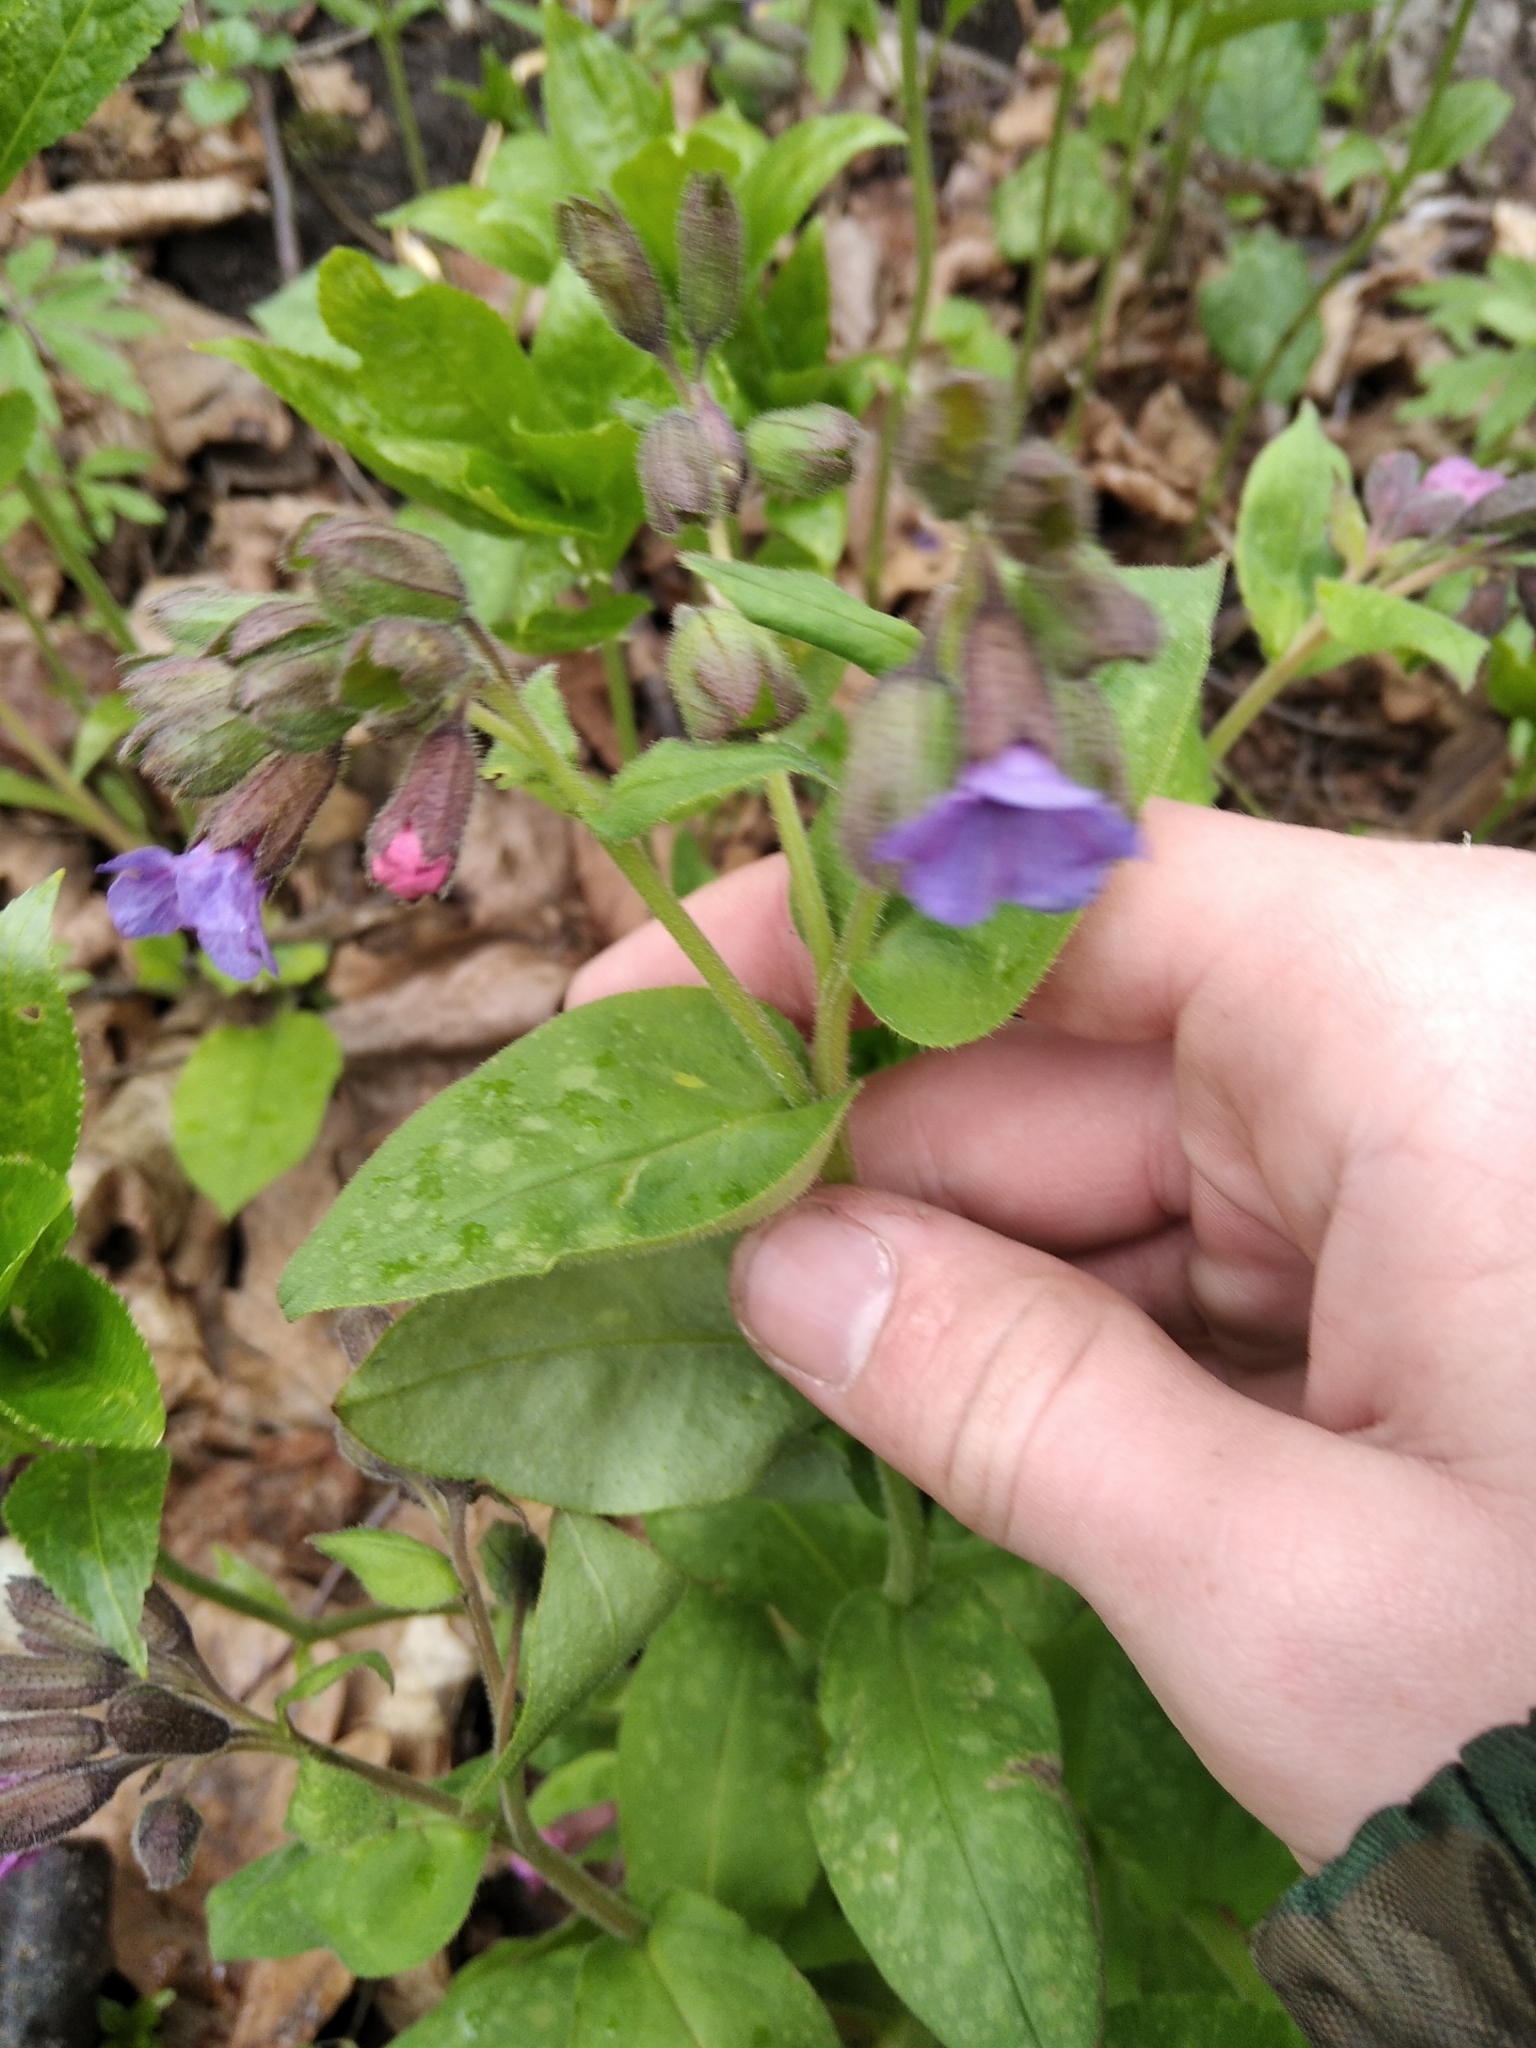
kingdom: Plantae
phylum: Tracheophyta
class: Magnoliopsida
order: Boraginales
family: Boraginaceae
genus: Pulmonaria
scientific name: Pulmonaria obscura
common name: Suffolk lungwort
